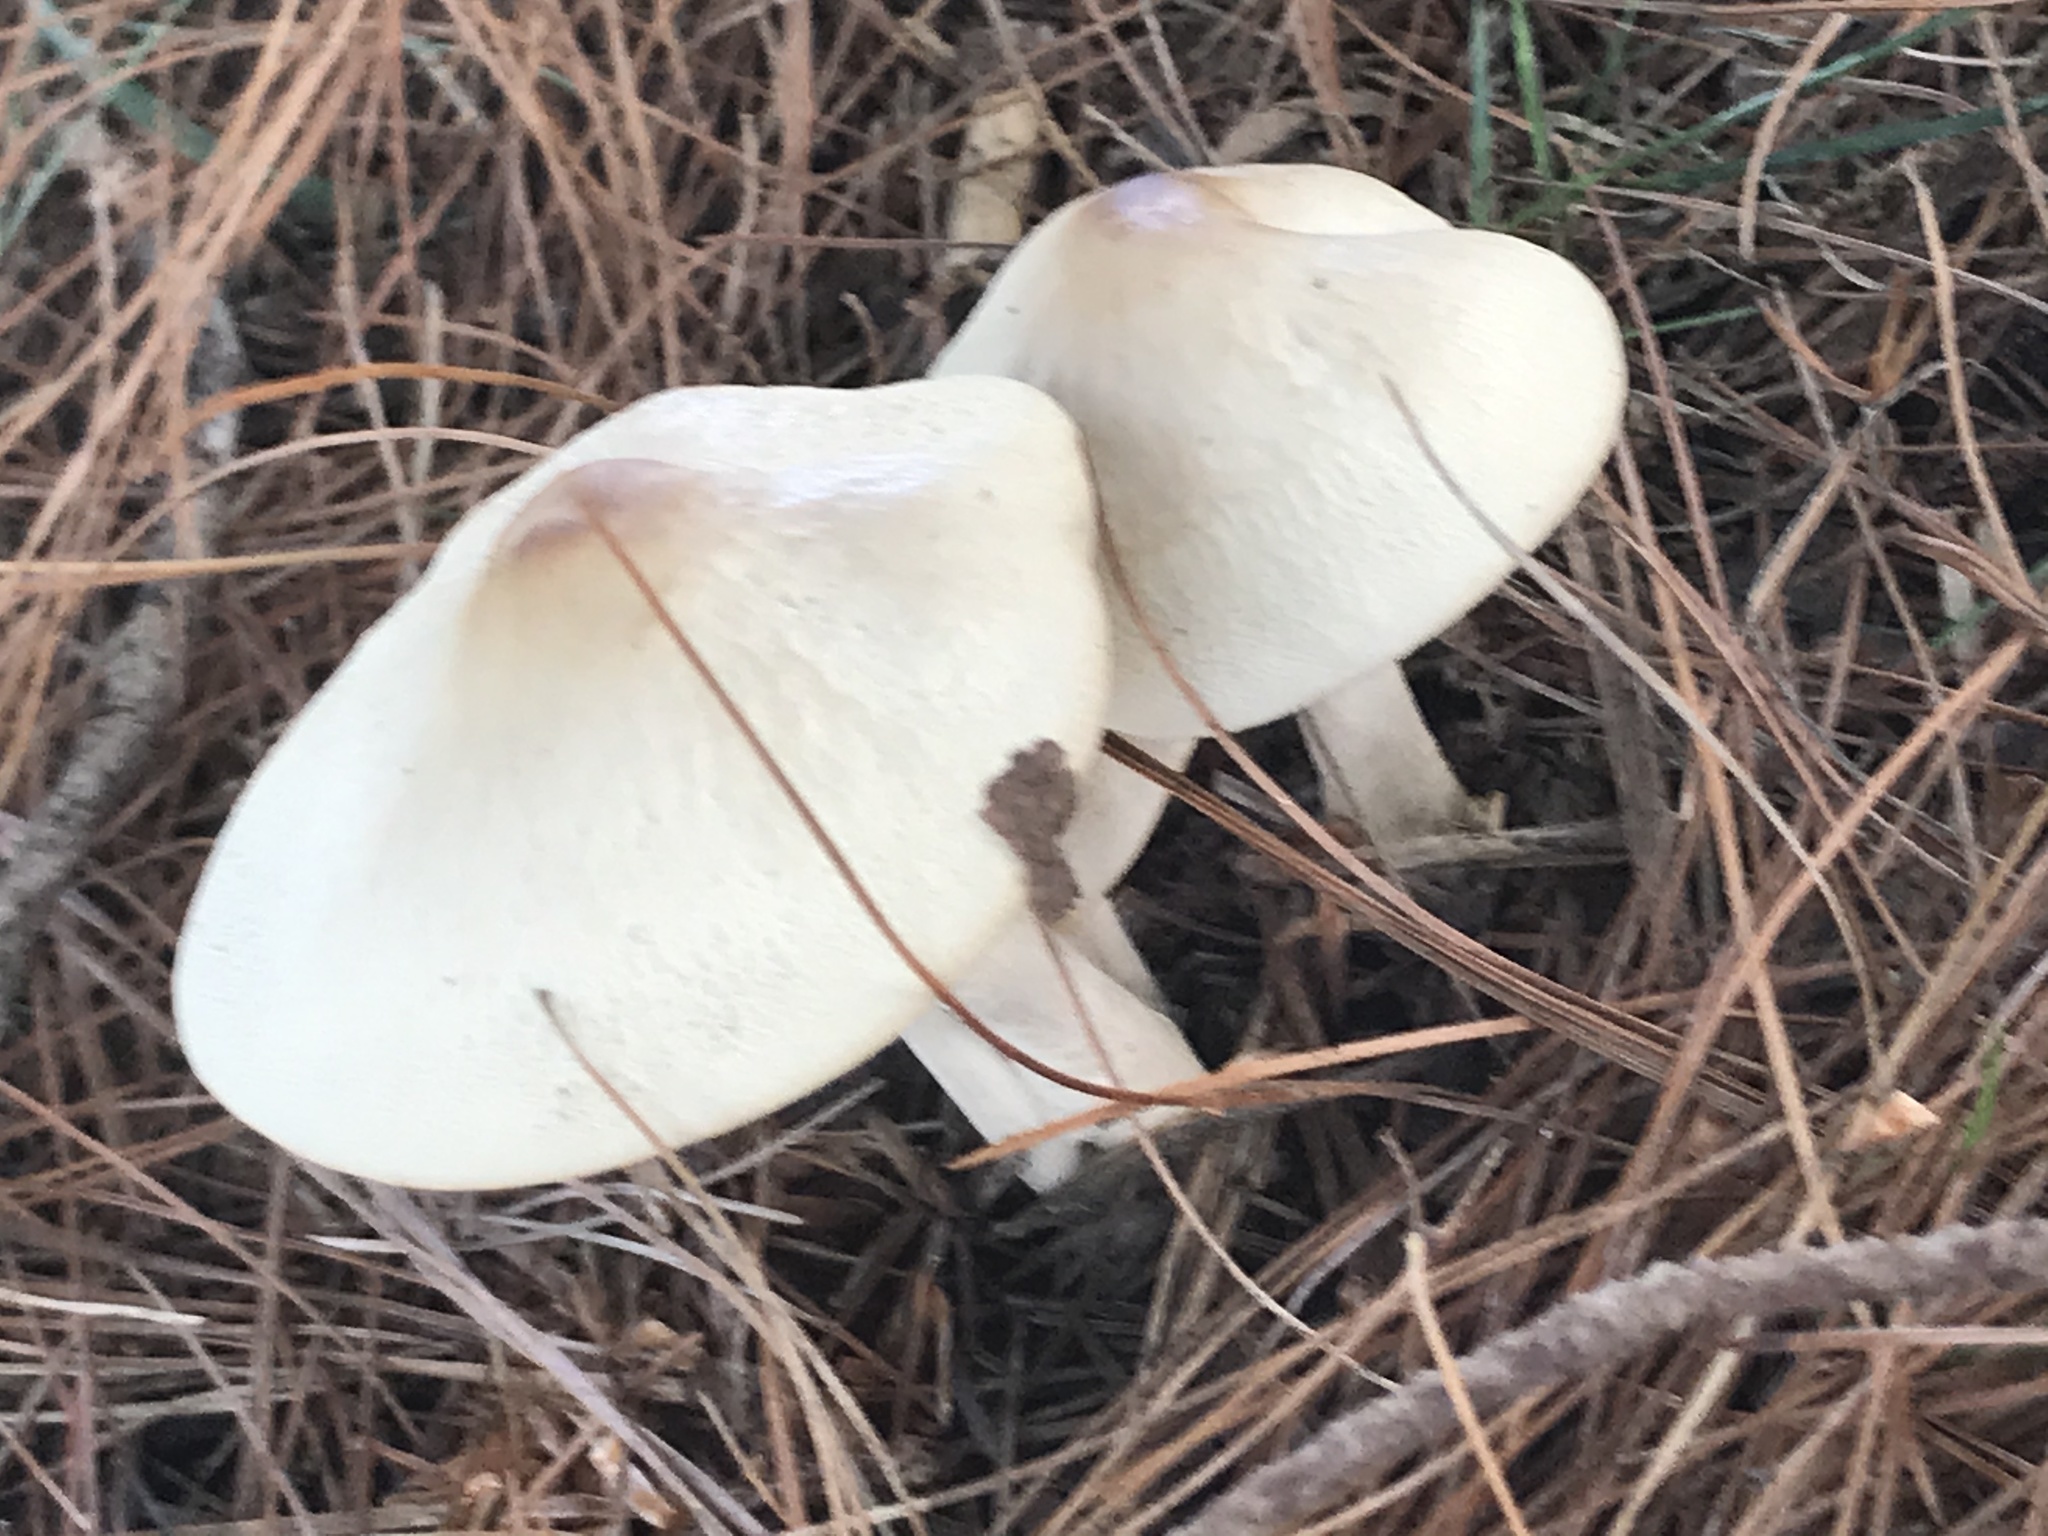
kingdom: Fungi
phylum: Basidiomycota
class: Agaricomycetes
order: Agaricales
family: Marasmiaceae
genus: Marasmius
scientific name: Marasmius nigrodiscus
